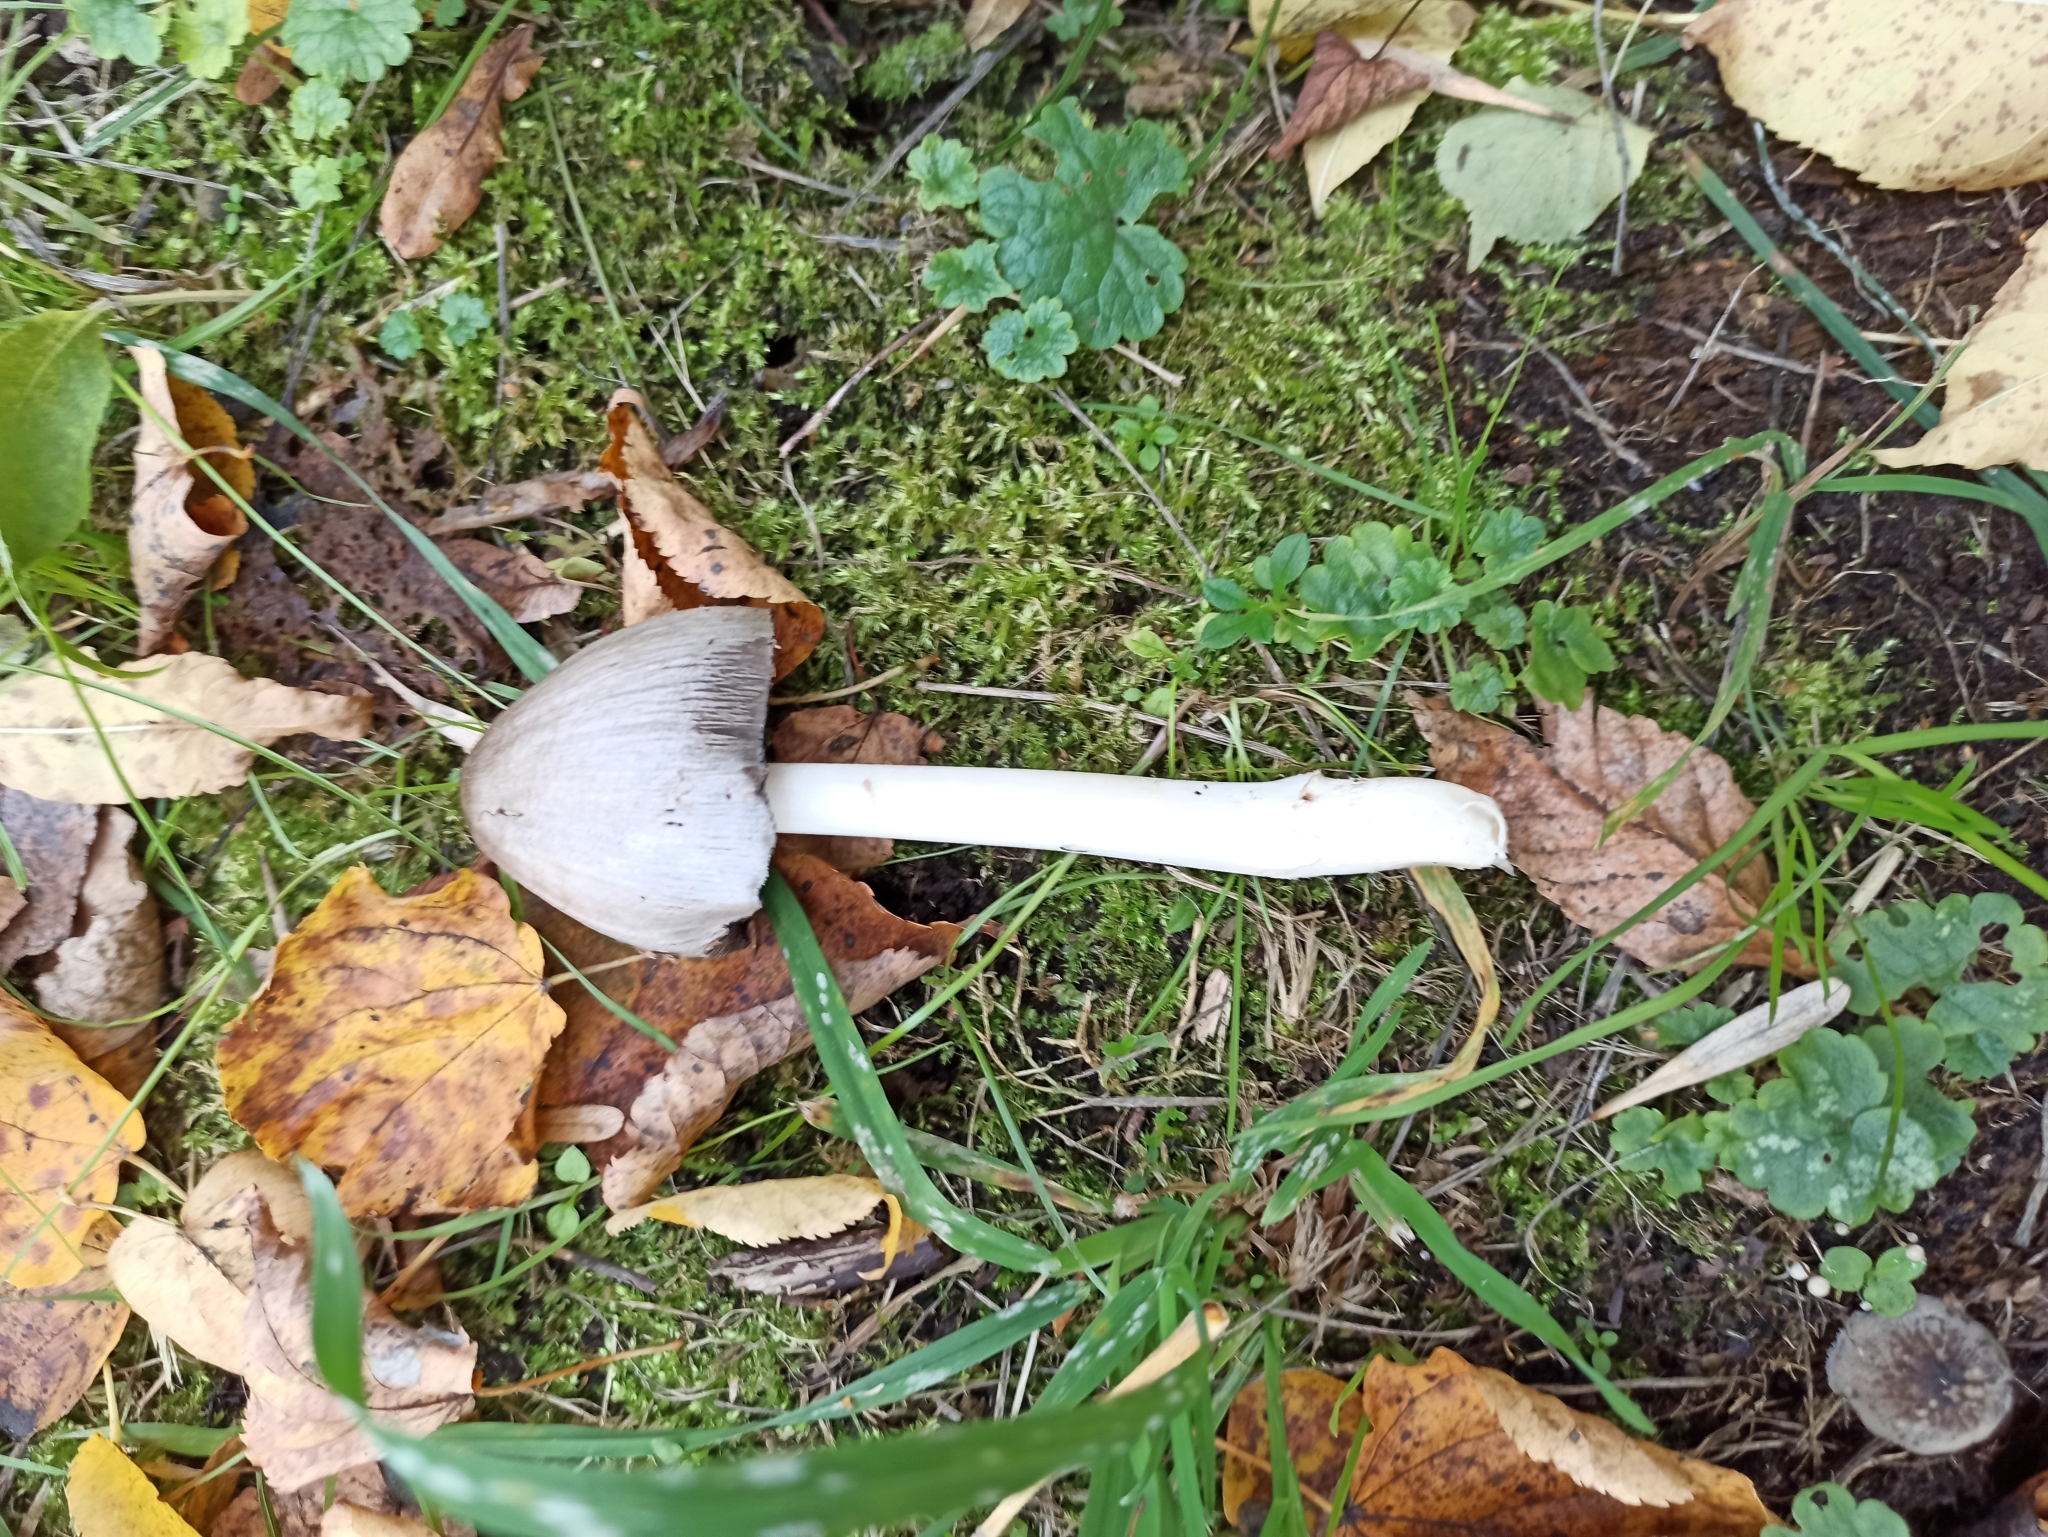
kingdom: Fungi
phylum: Basidiomycota
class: Agaricomycetes
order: Agaricales
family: Psathyrellaceae
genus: Coprinopsis
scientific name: Coprinopsis atramentaria
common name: Common ink-cap
